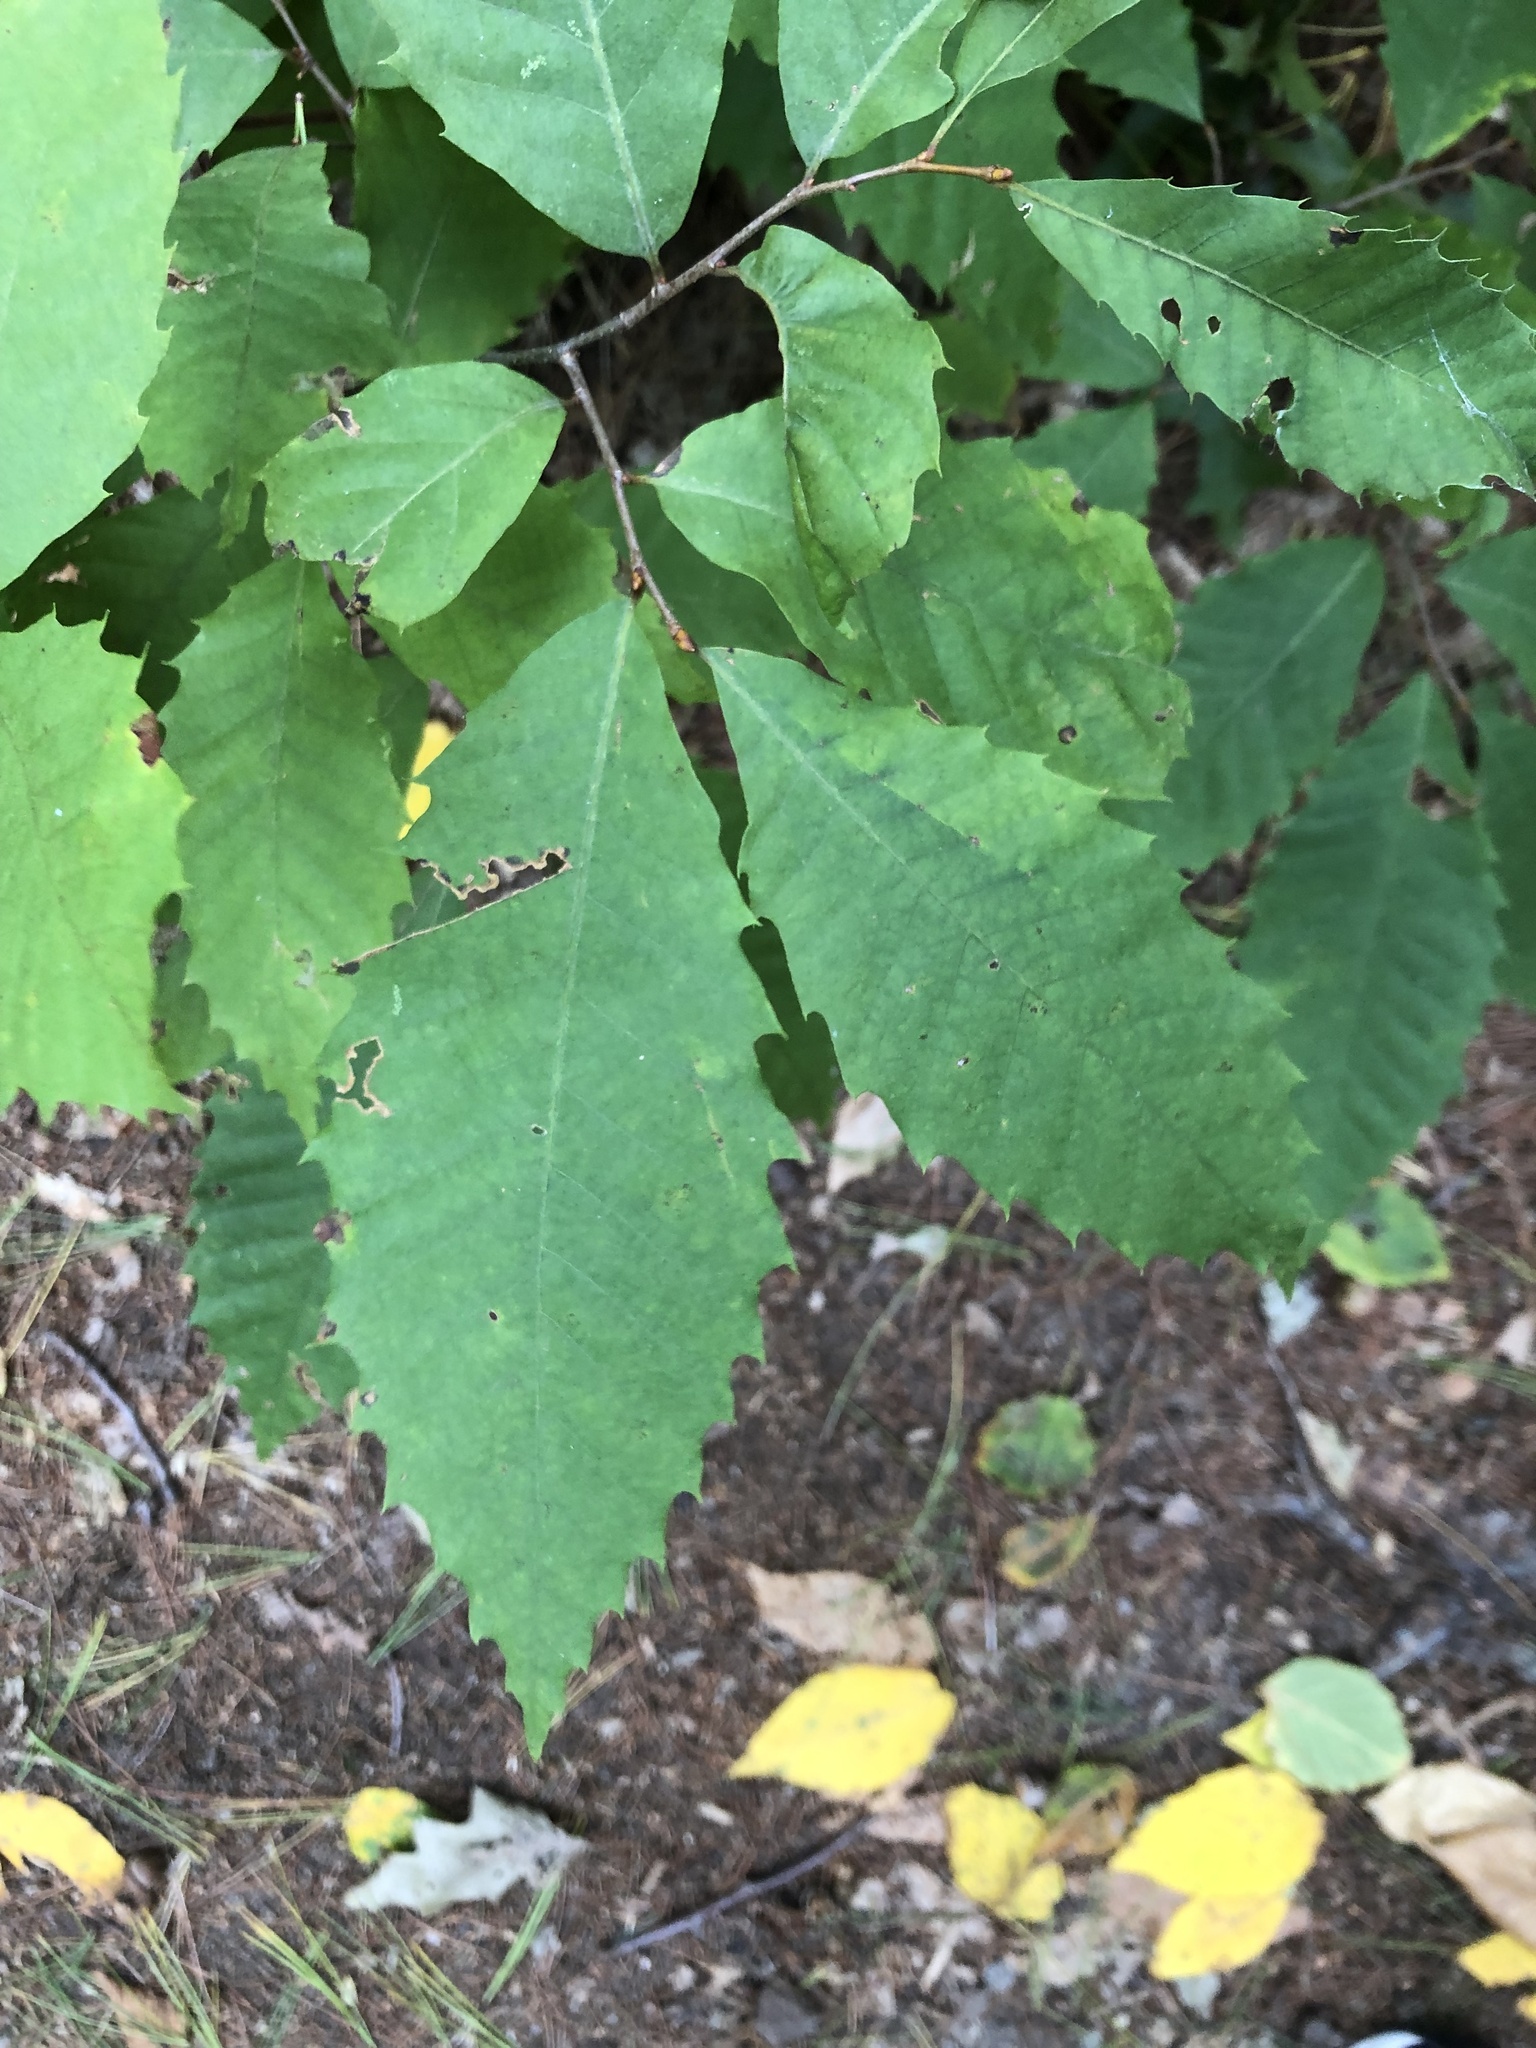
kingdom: Plantae
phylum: Tracheophyta
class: Magnoliopsida
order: Fagales
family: Fagaceae
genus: Castanea
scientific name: Castanea dentata
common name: American chestnut
